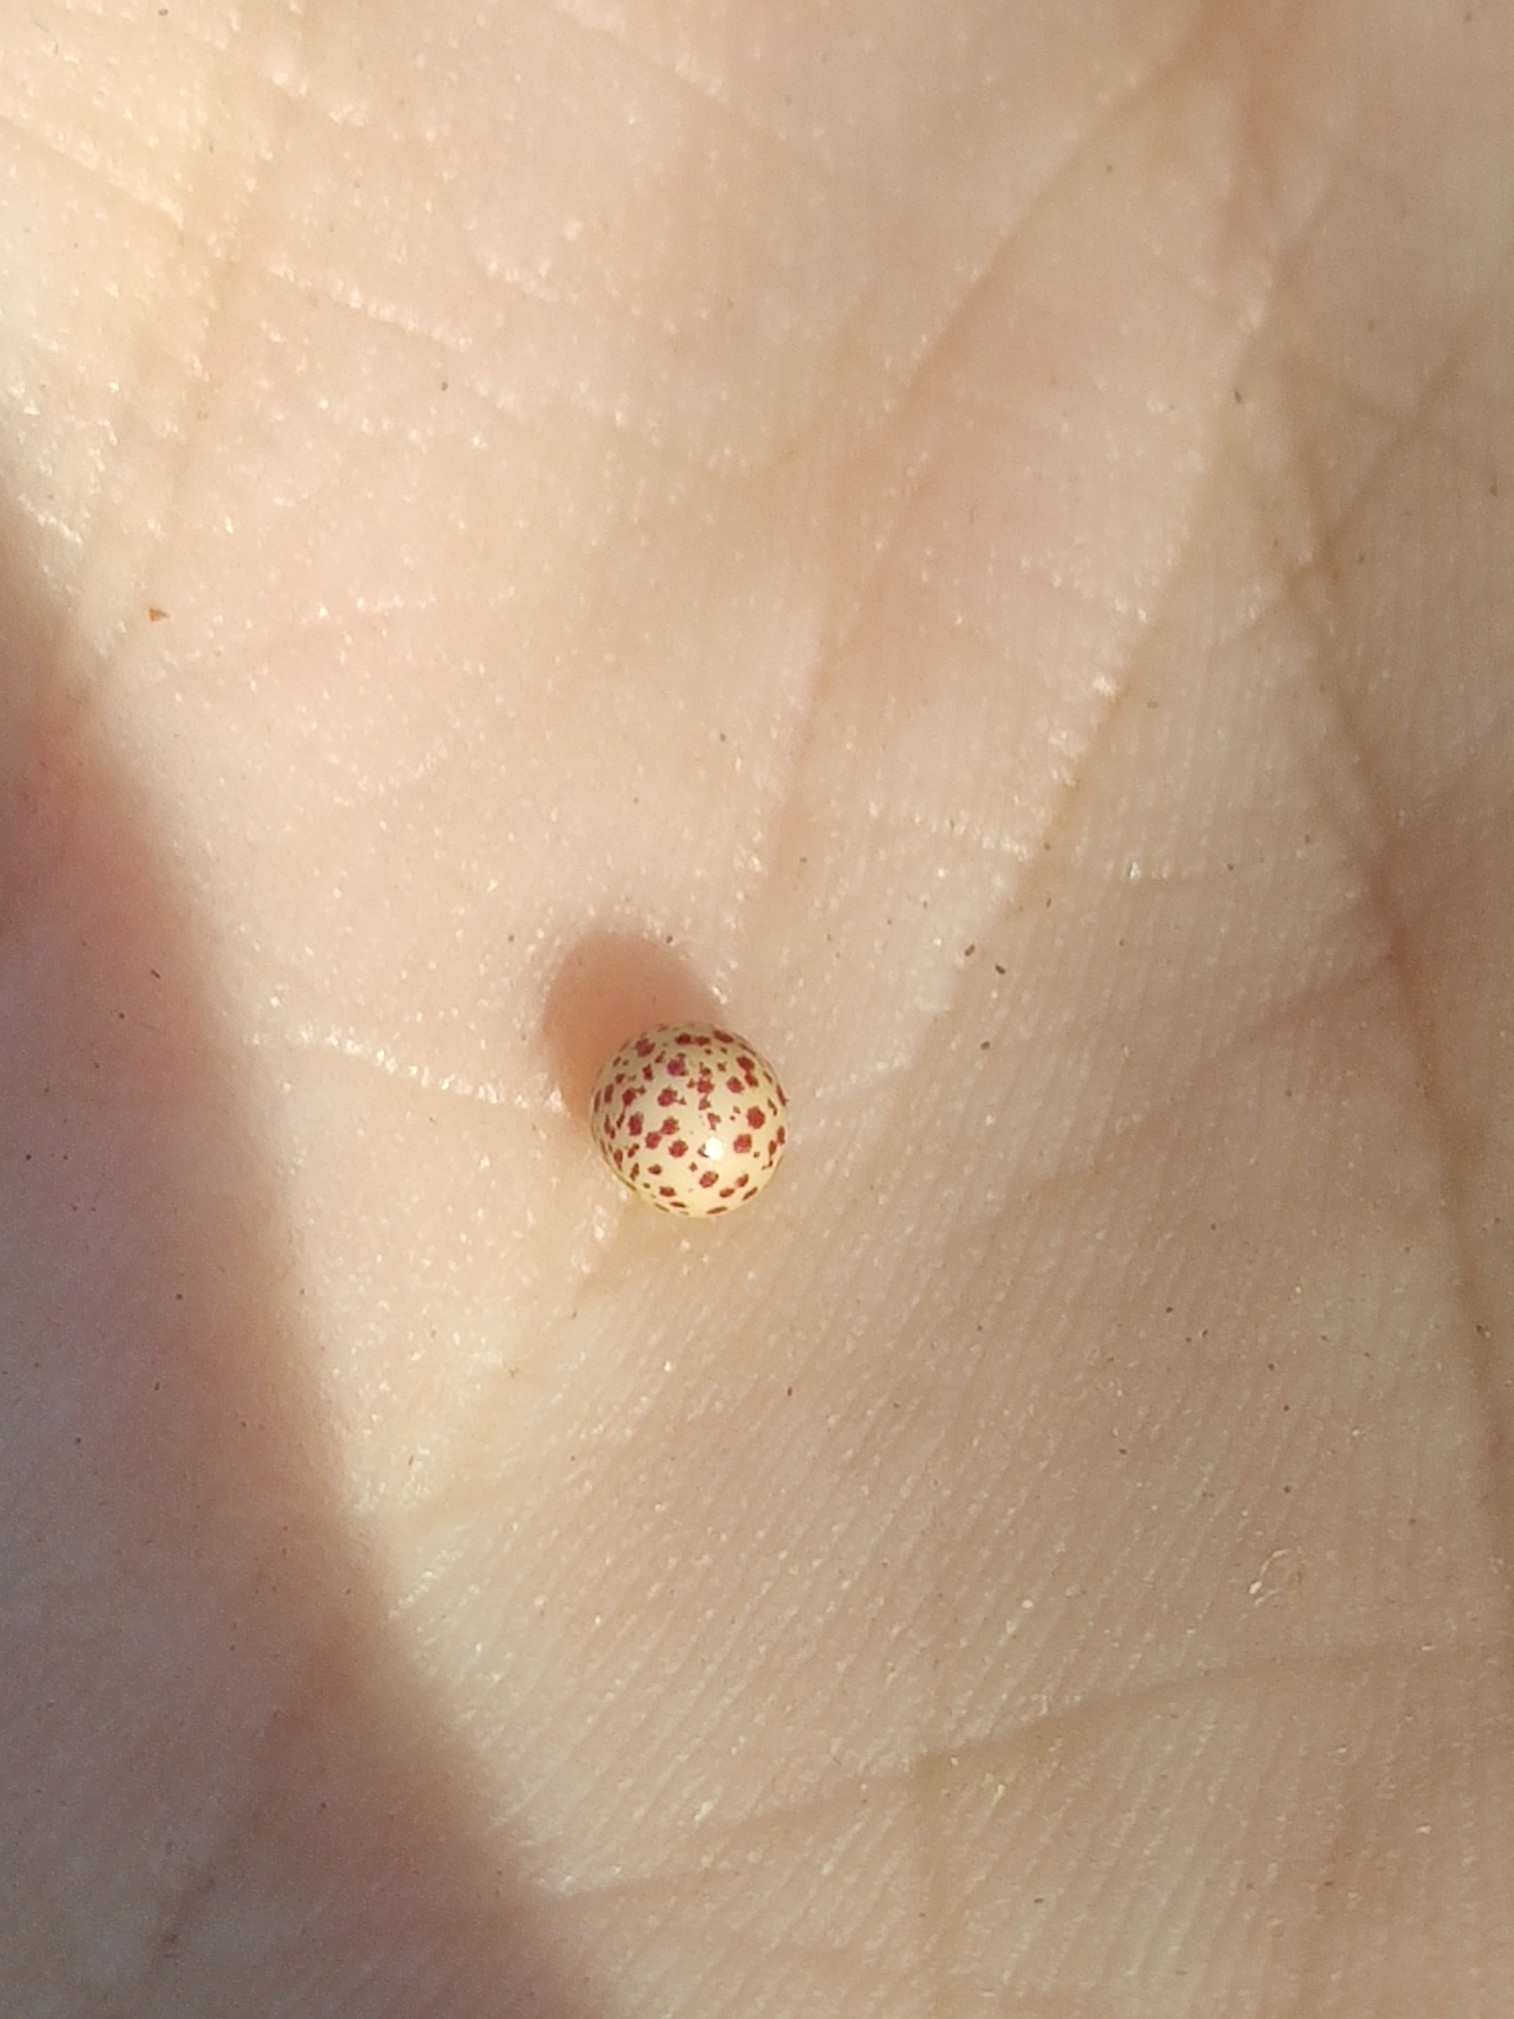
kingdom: Animalia
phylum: Arthropoda
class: Insecta
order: Hymenoptera
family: Cynipidae
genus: Neuroterus
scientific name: Neuroterus anthracinus
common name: Oyster gall
